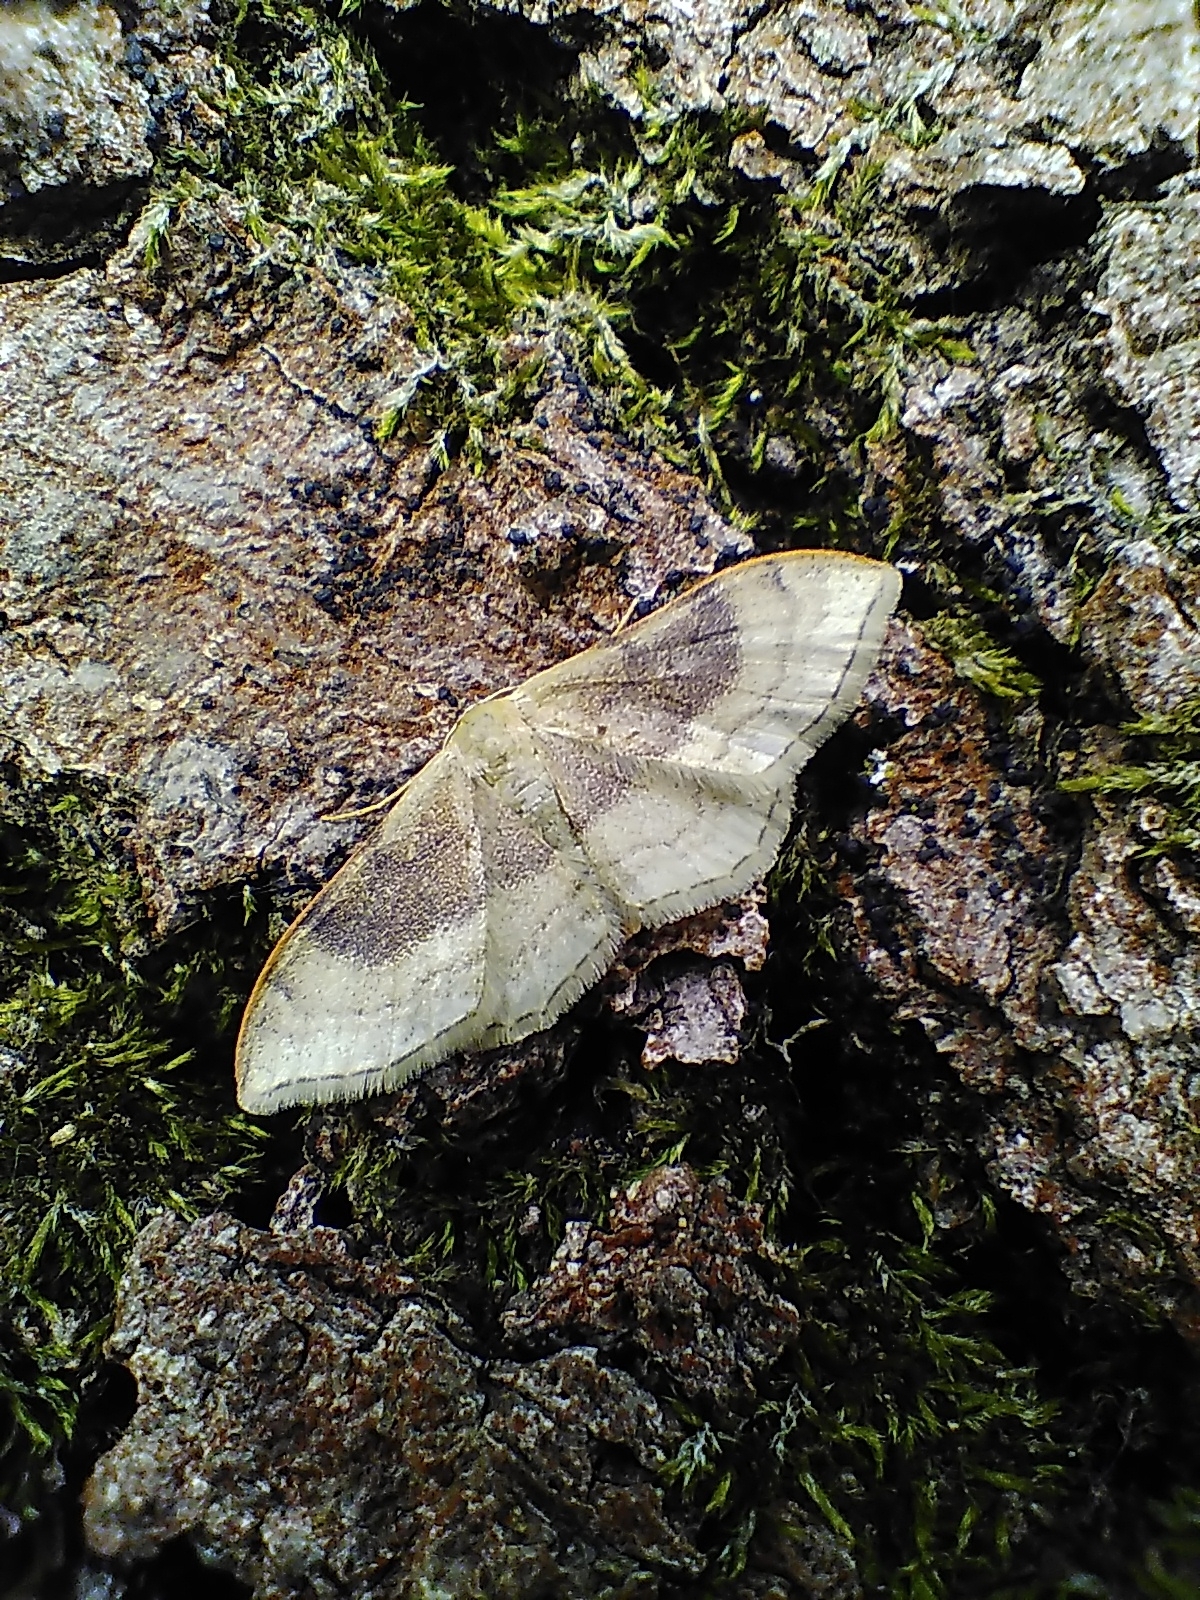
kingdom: Animalia
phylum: Arthropoda
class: Insecta
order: Lepidoptera
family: Geometridae
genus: Idaea
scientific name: Idaea degeneraria
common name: Portland ribbon wave
